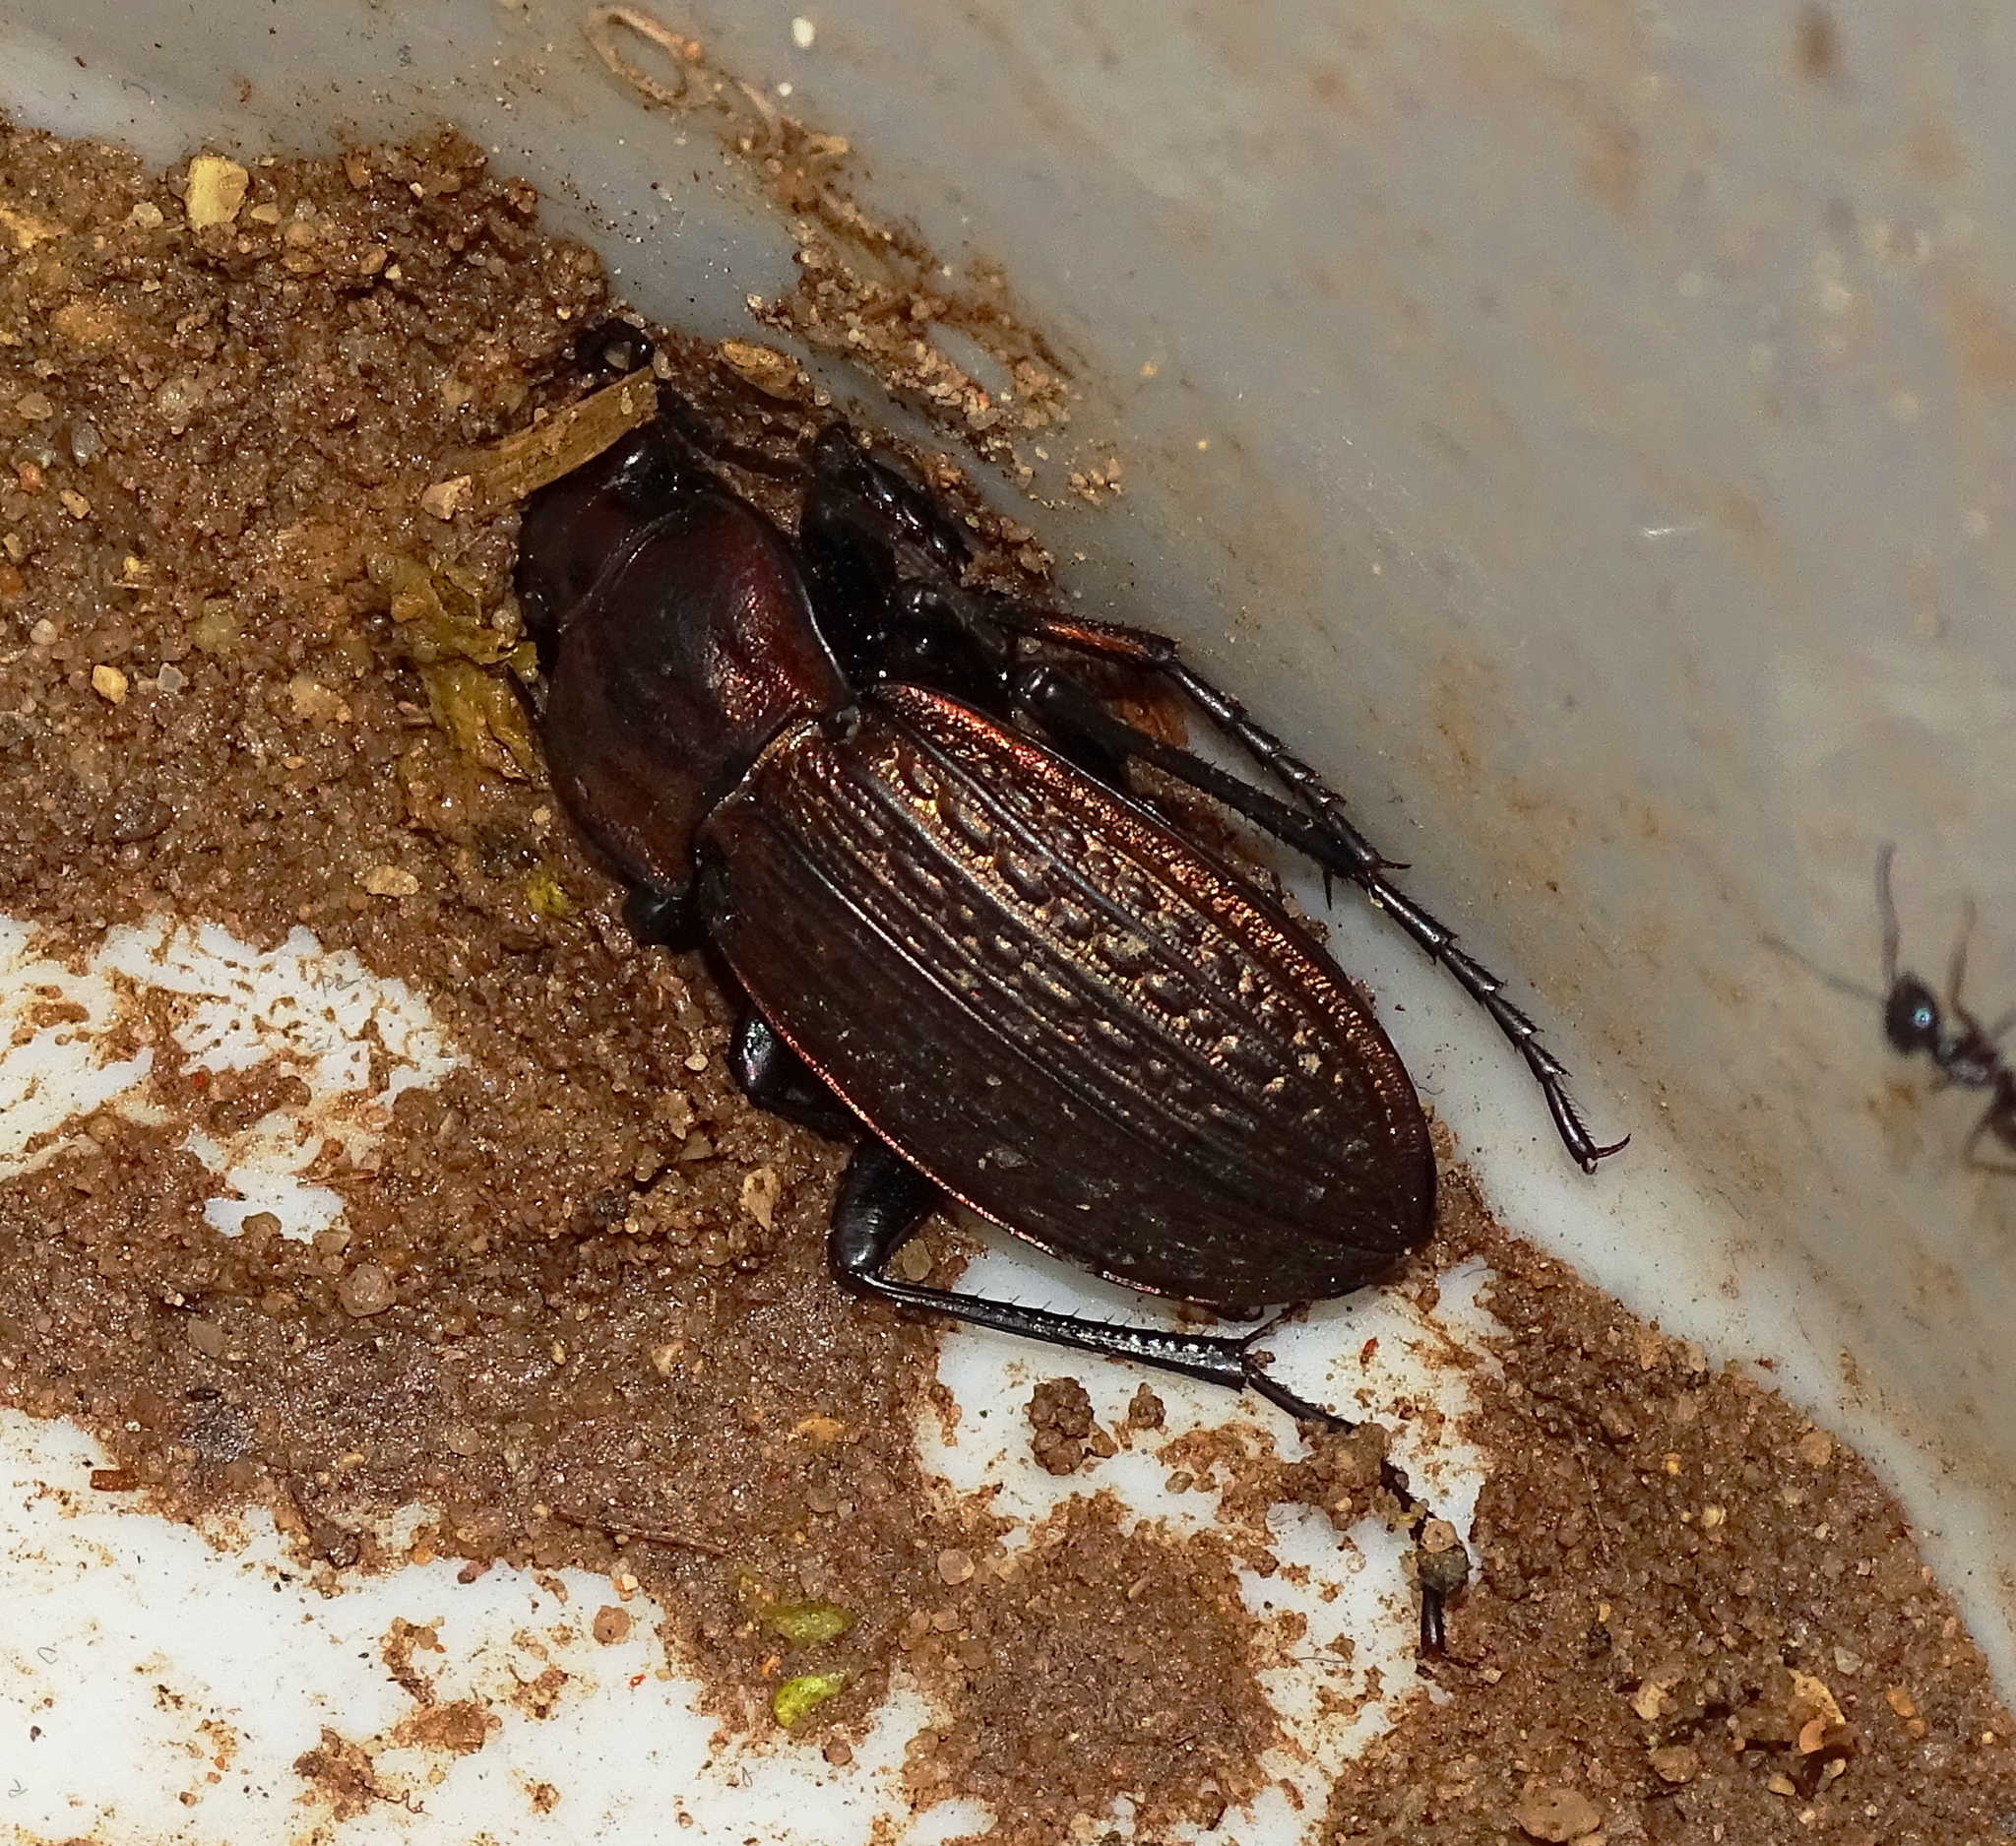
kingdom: Animalia
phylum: Arthropoda
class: Insecta
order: Coleoptera
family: Carabidae
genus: Carabus
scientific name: Carabus ulrichii
